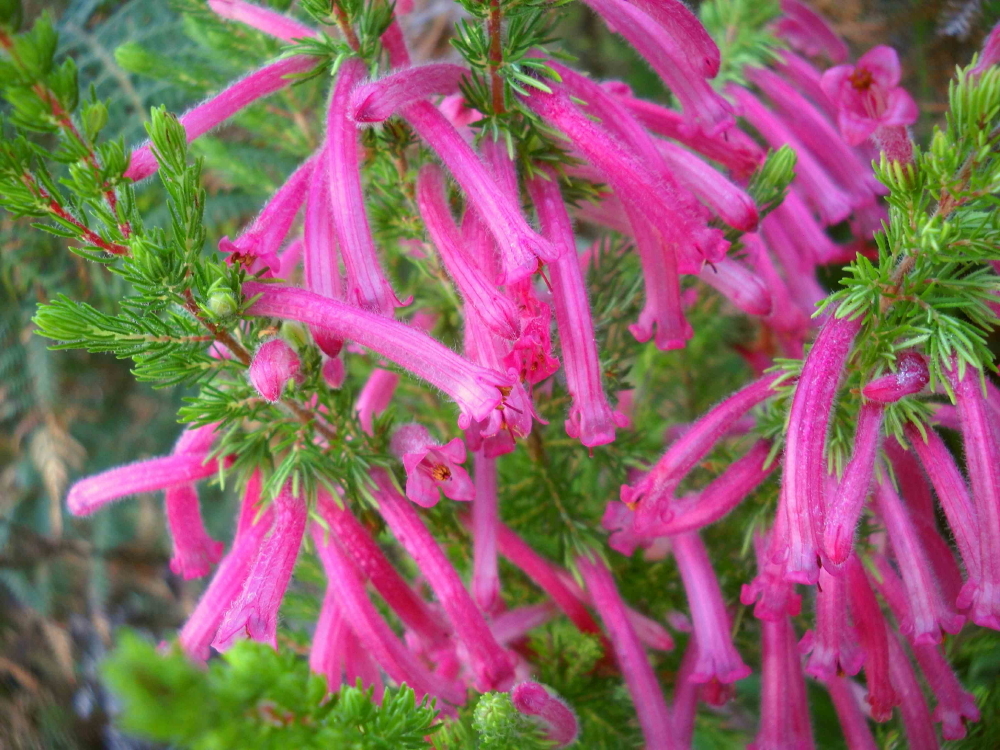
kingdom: Plantae
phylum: Tracheophyta
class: Magnoliopsida
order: Ericales
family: Ericaceae
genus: Erica
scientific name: Erica curviflora
